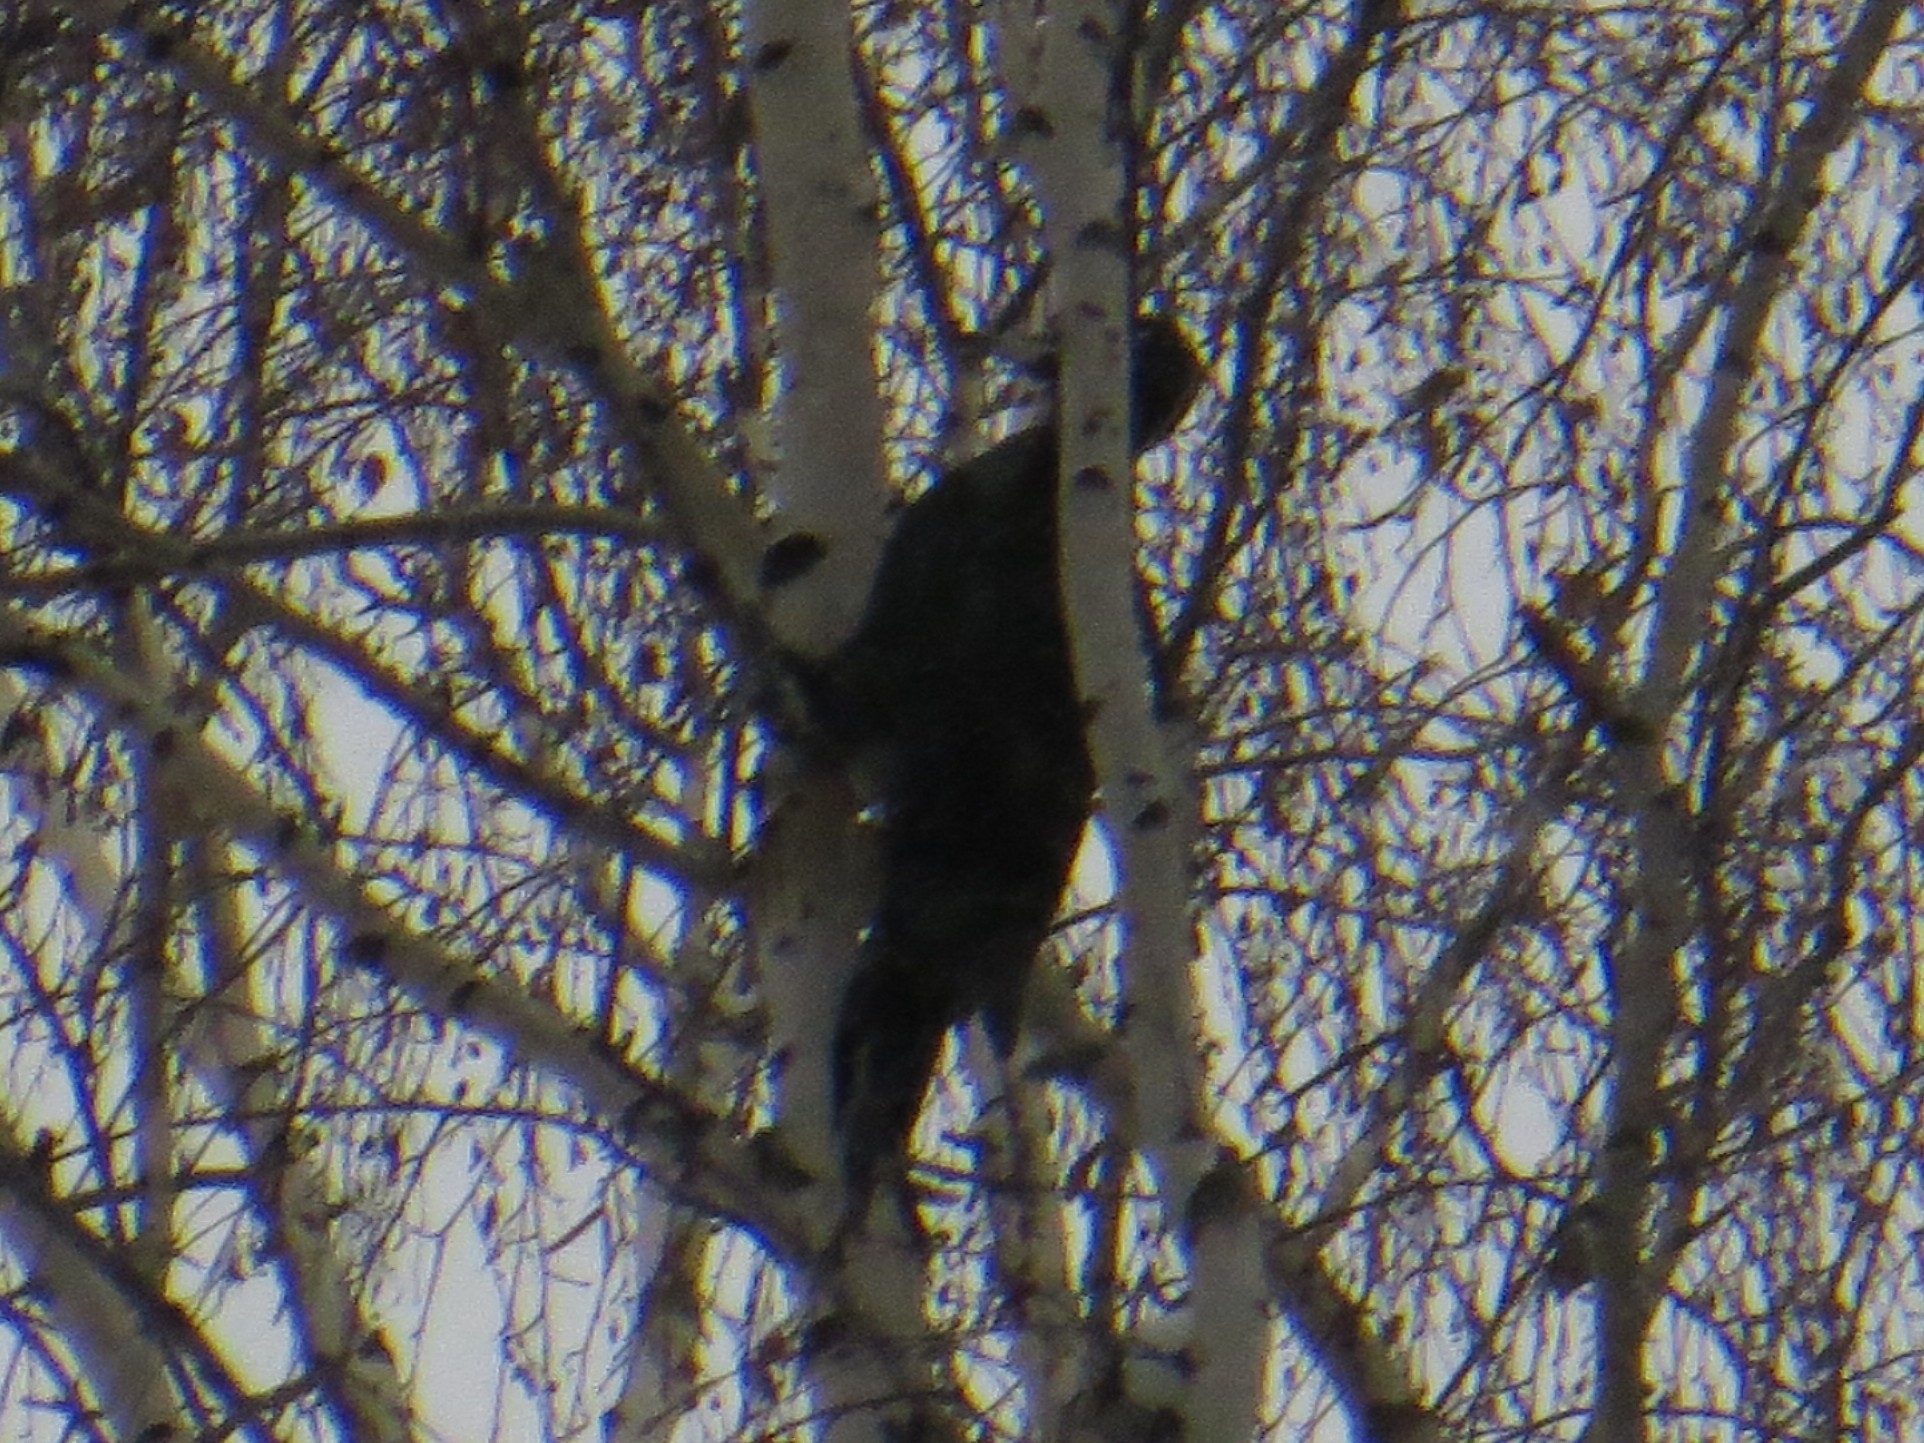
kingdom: Animalia
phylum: Chordata
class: Aves
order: Piciformes
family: Picidae
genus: Dryocopus
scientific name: Dryocopus martius
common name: Black woodpecker
